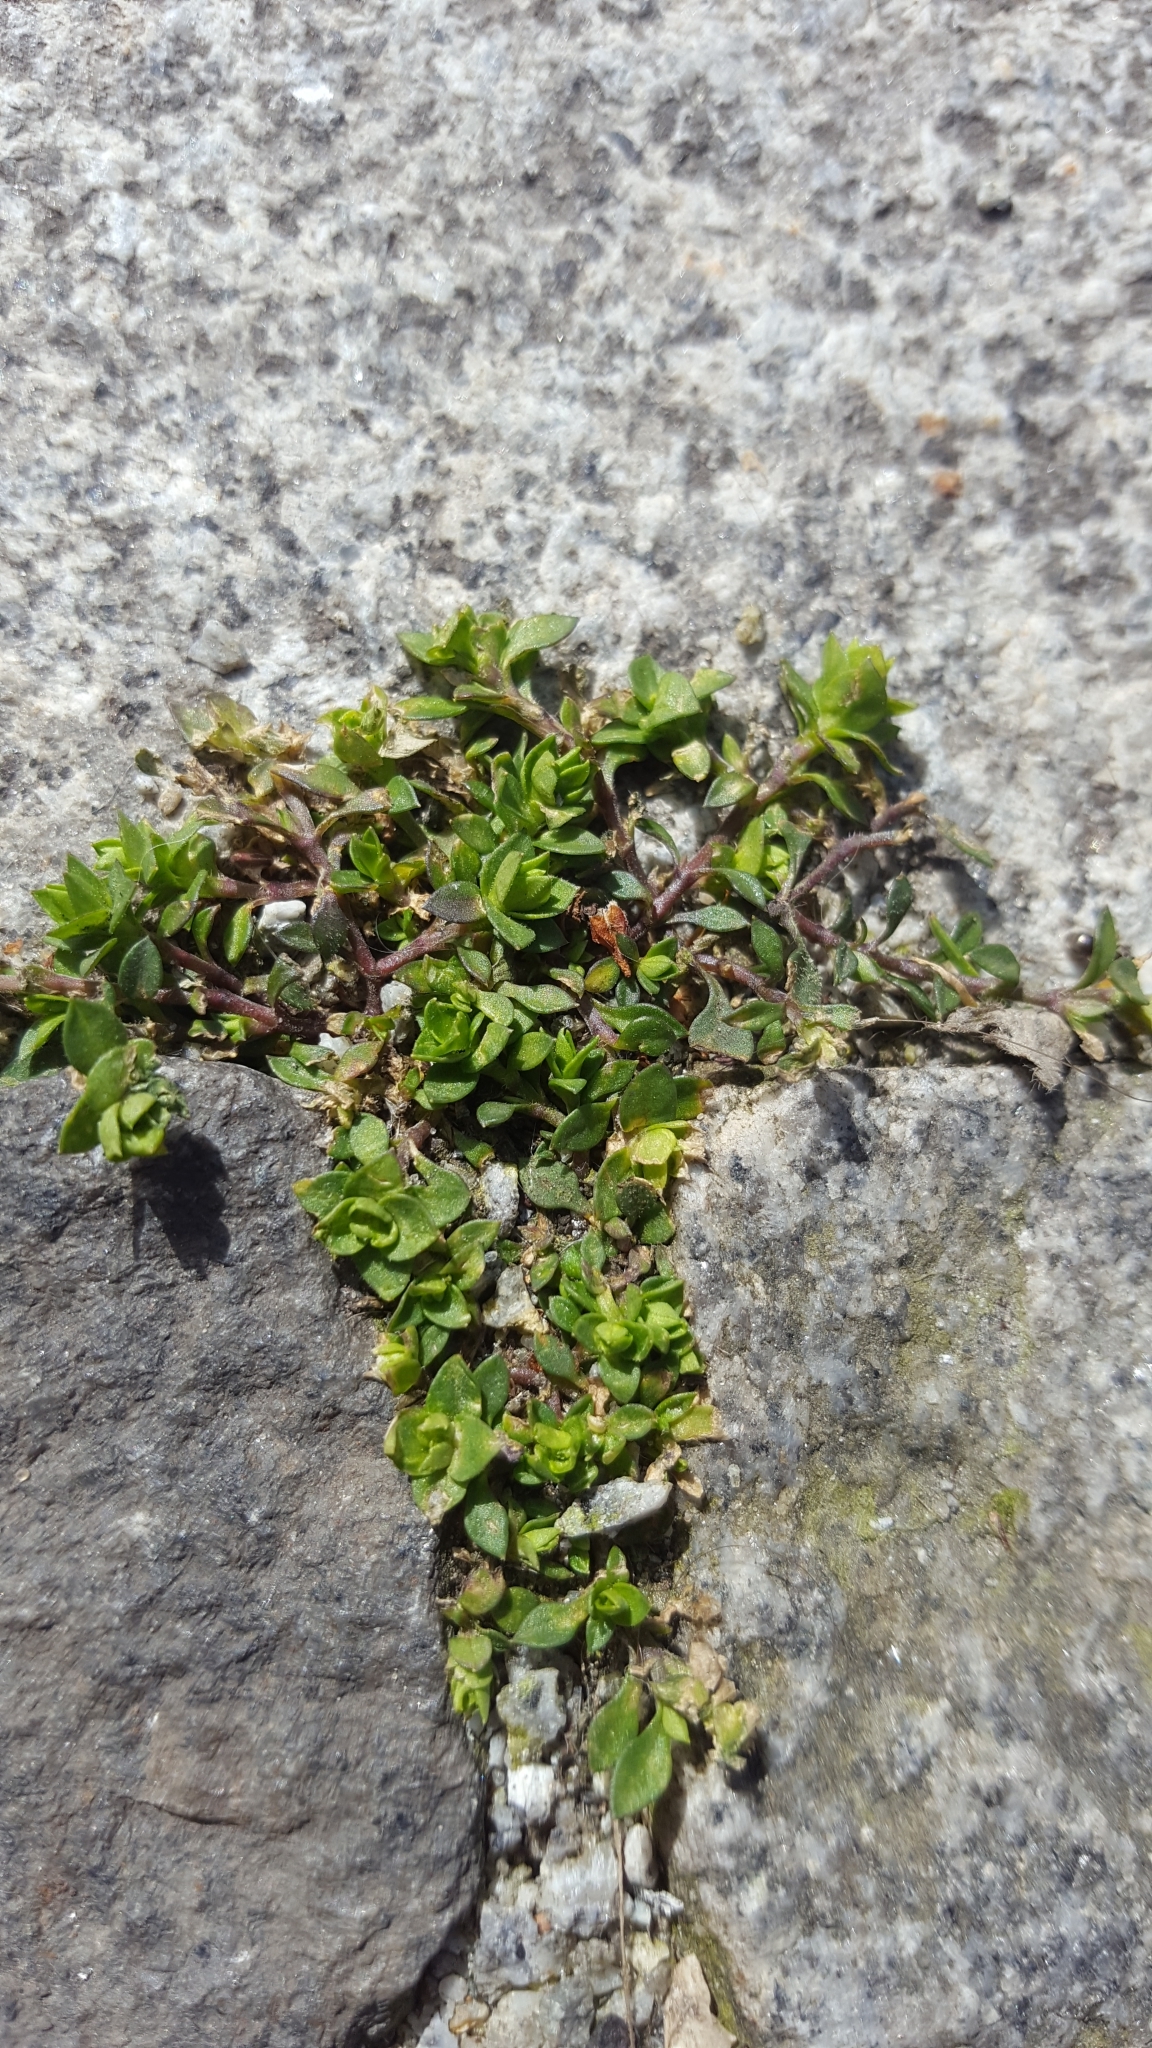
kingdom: Plantae
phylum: Tracheophyta
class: Magnoliopsida
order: Caryophyllales
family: Caryophyllaceae
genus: Arenaria
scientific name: Arenaria serpyllifolia
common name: Thyme-leaved sandwort
